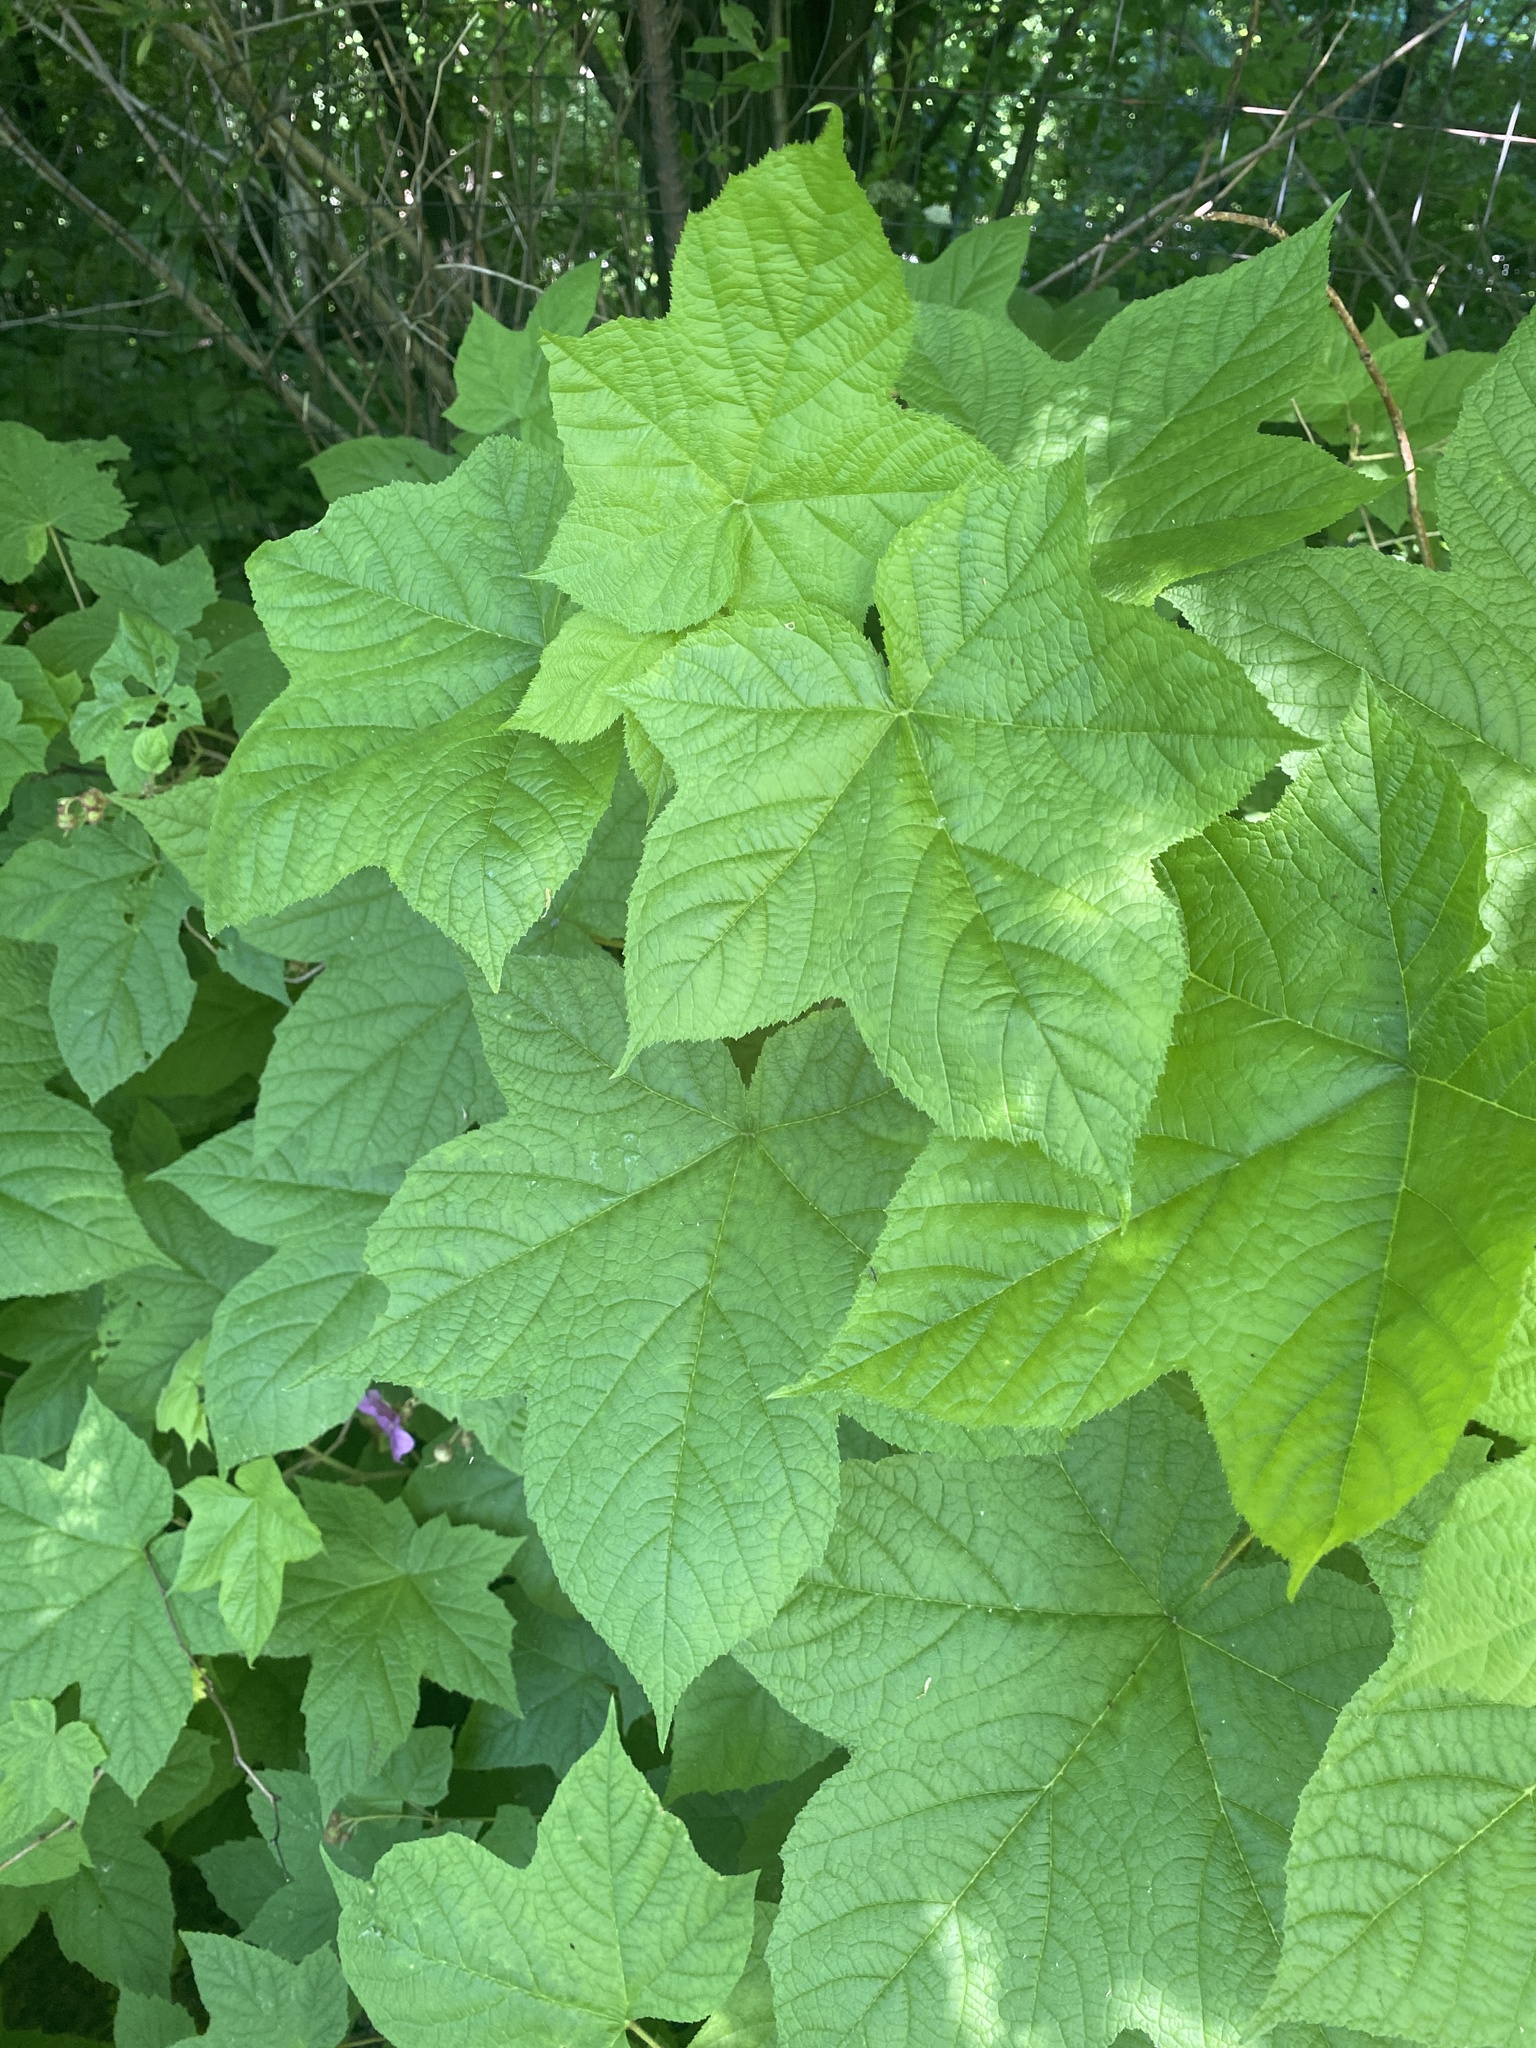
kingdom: Plantae
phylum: Tracheophyta
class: Magnoliopsida
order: Rosales
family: Rosaceae
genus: Rubus
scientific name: Rubus odoratus
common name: Purple-flowered raspberry
